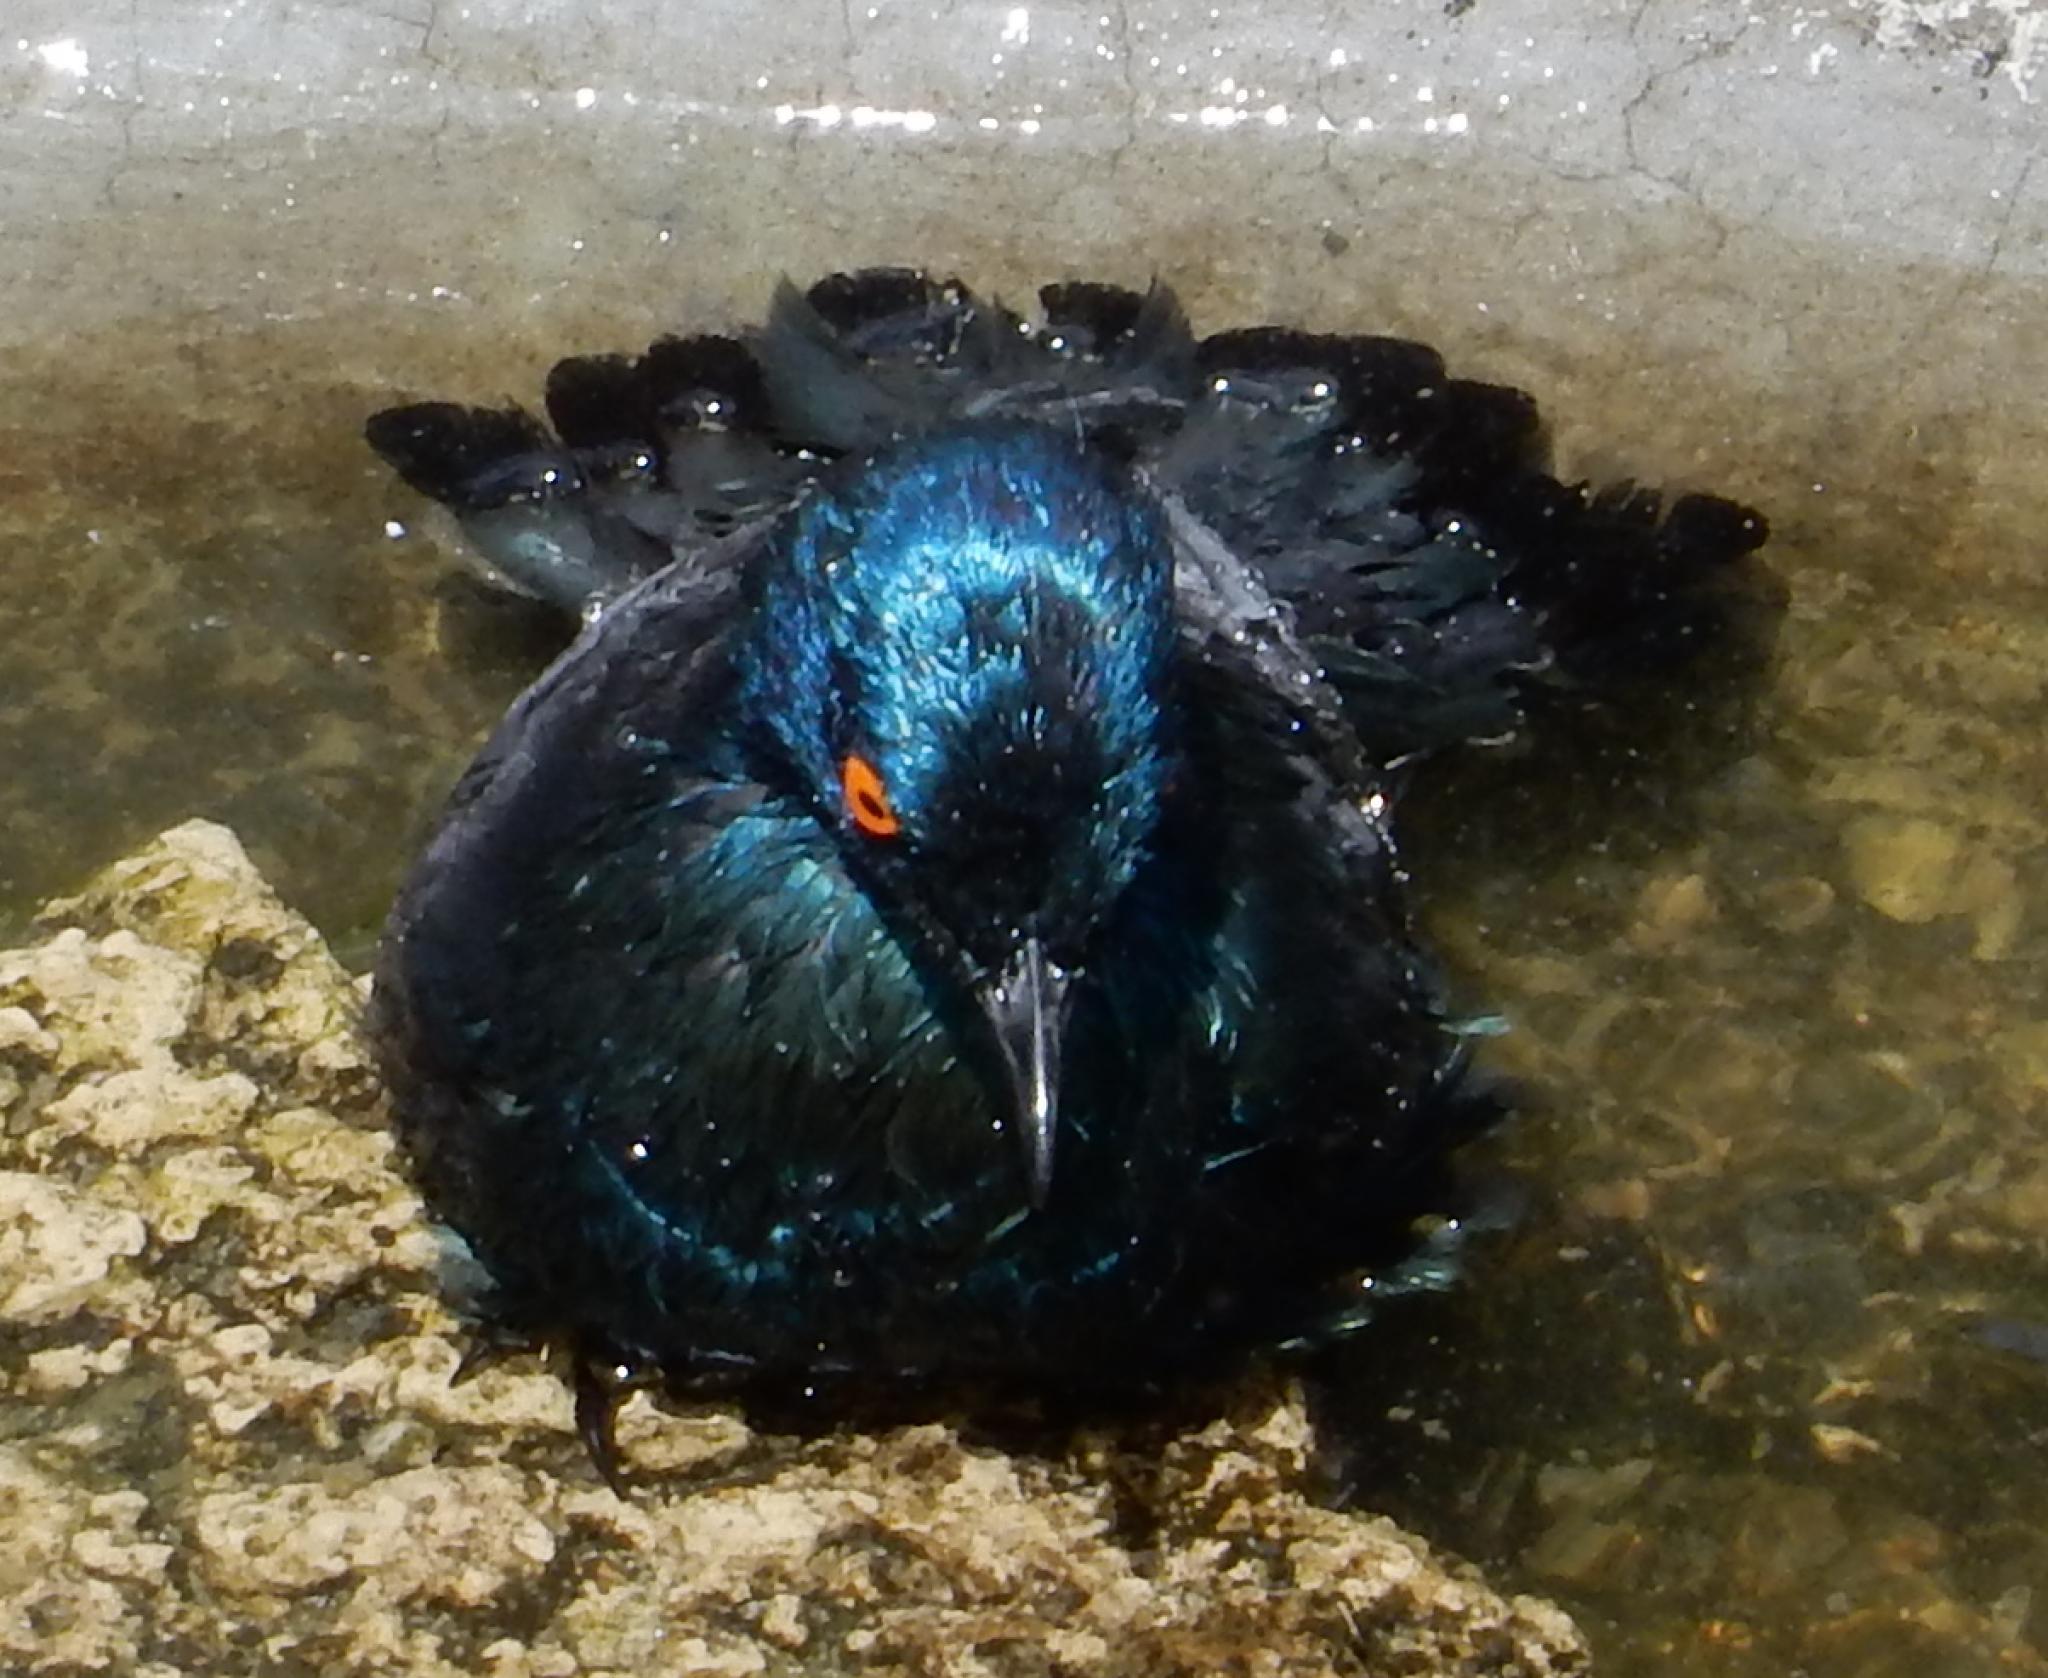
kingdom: Animalia
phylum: Chordata
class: Aves
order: Passeriformes
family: Sturnidae
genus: Notopholia
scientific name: Notopholia corrusca
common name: Black-bellied starling
